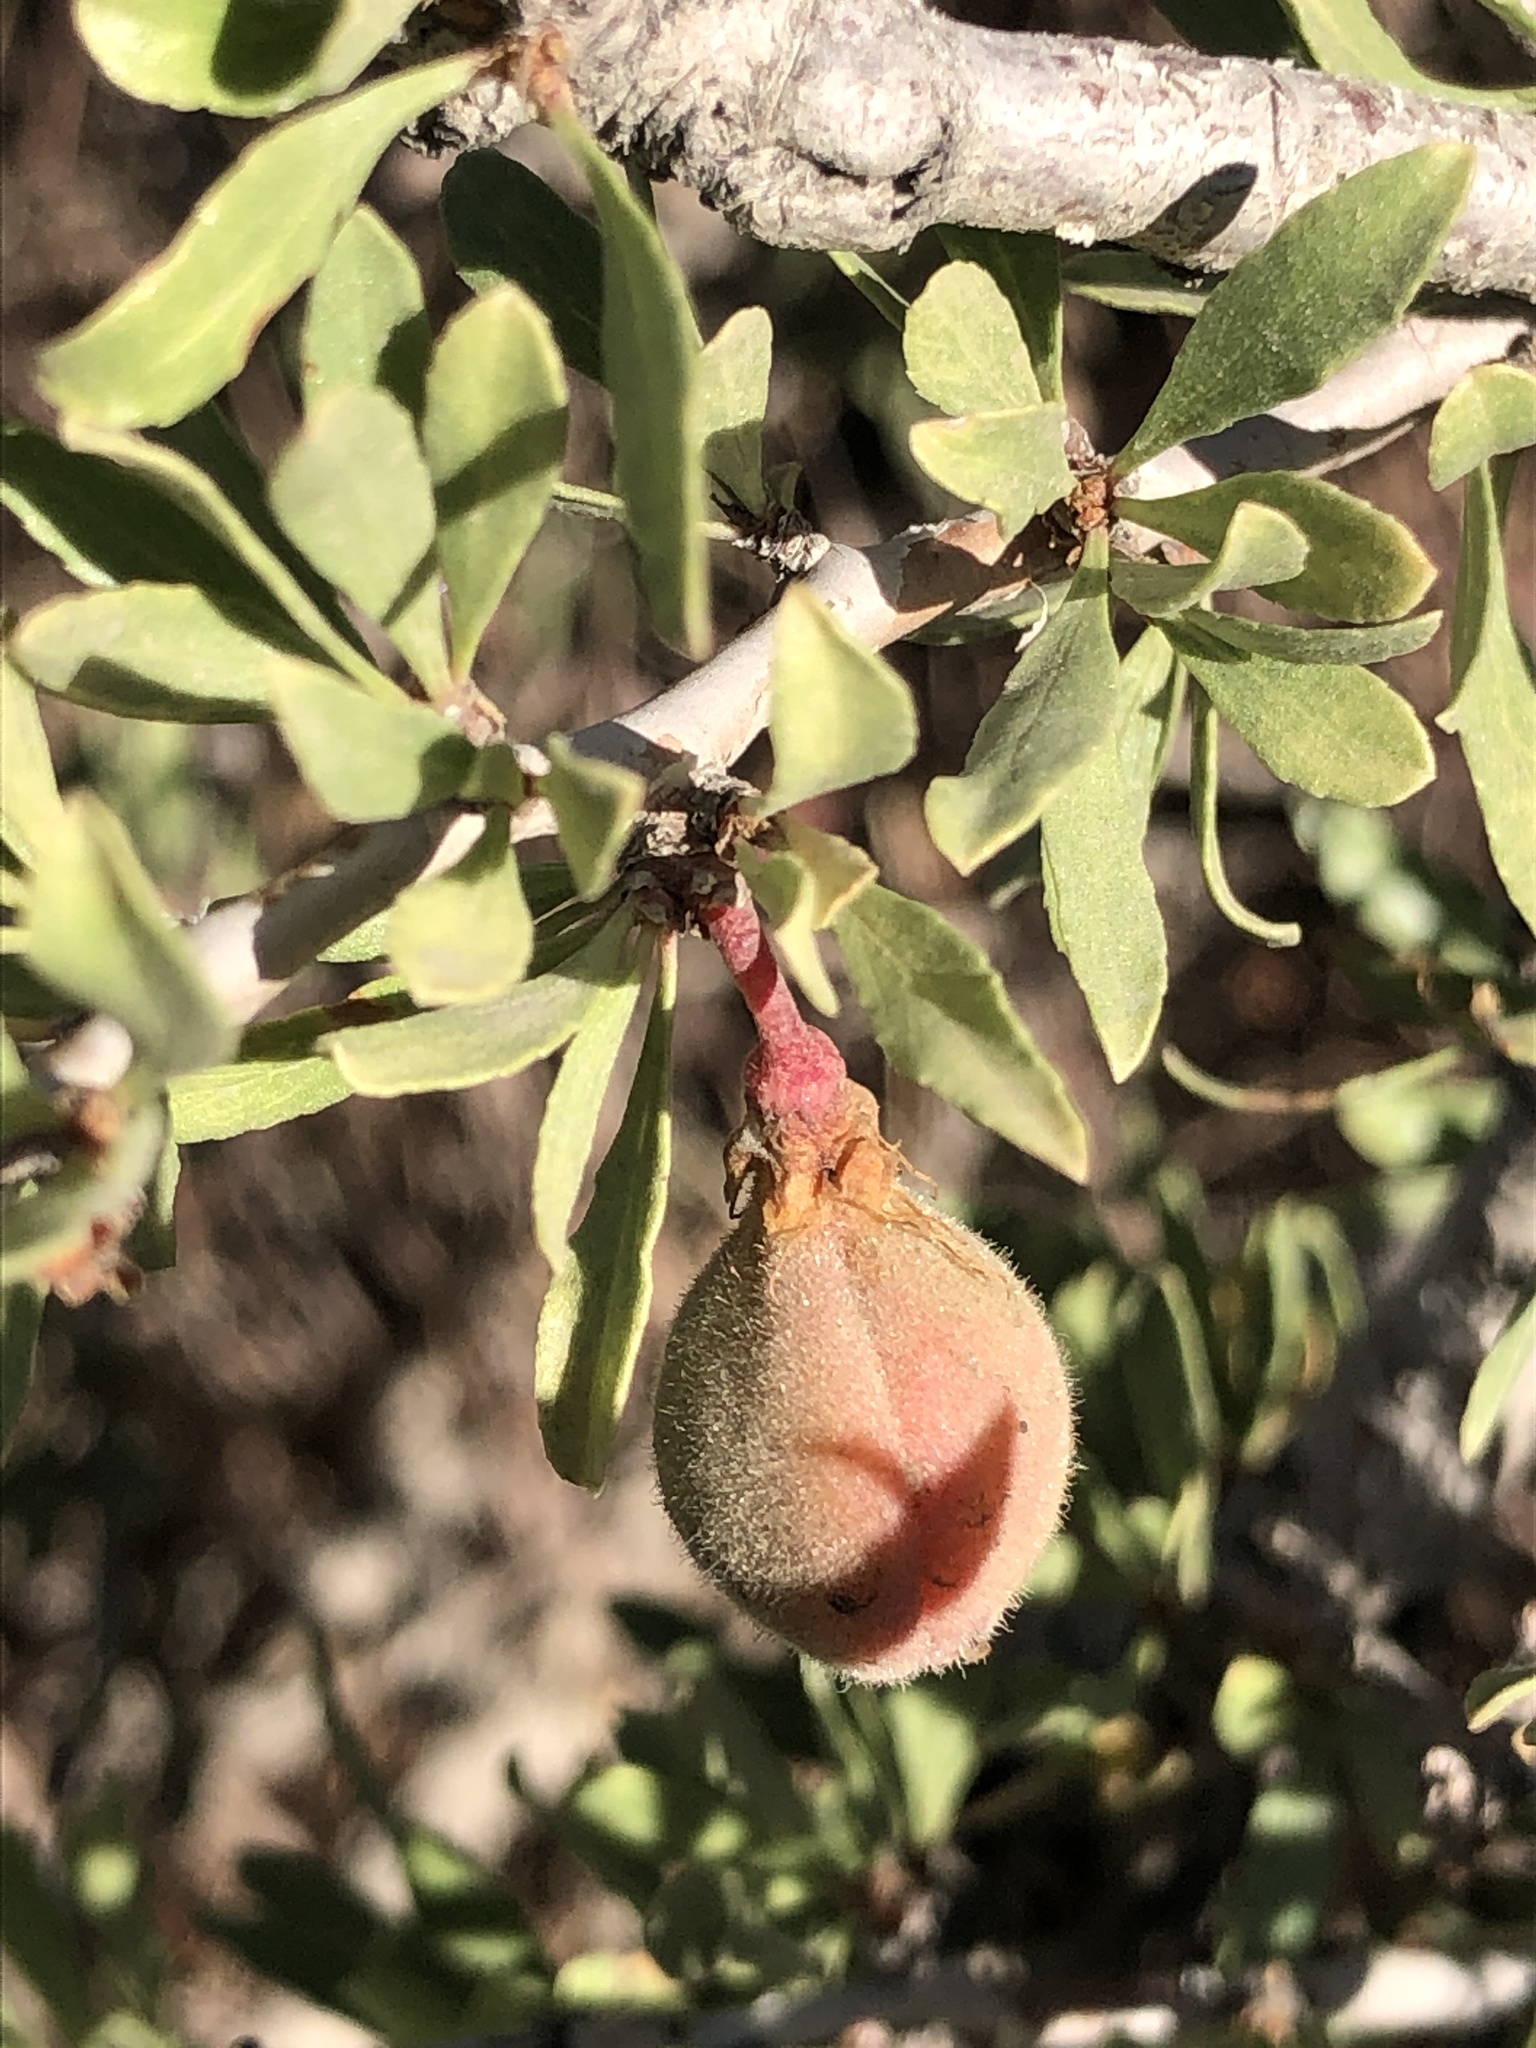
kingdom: Plantae
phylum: Tracheophyta
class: Magnoliopsida
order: Rosales
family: Rosaceae
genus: Prunus
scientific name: Prunus andersonii
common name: Desert peach
